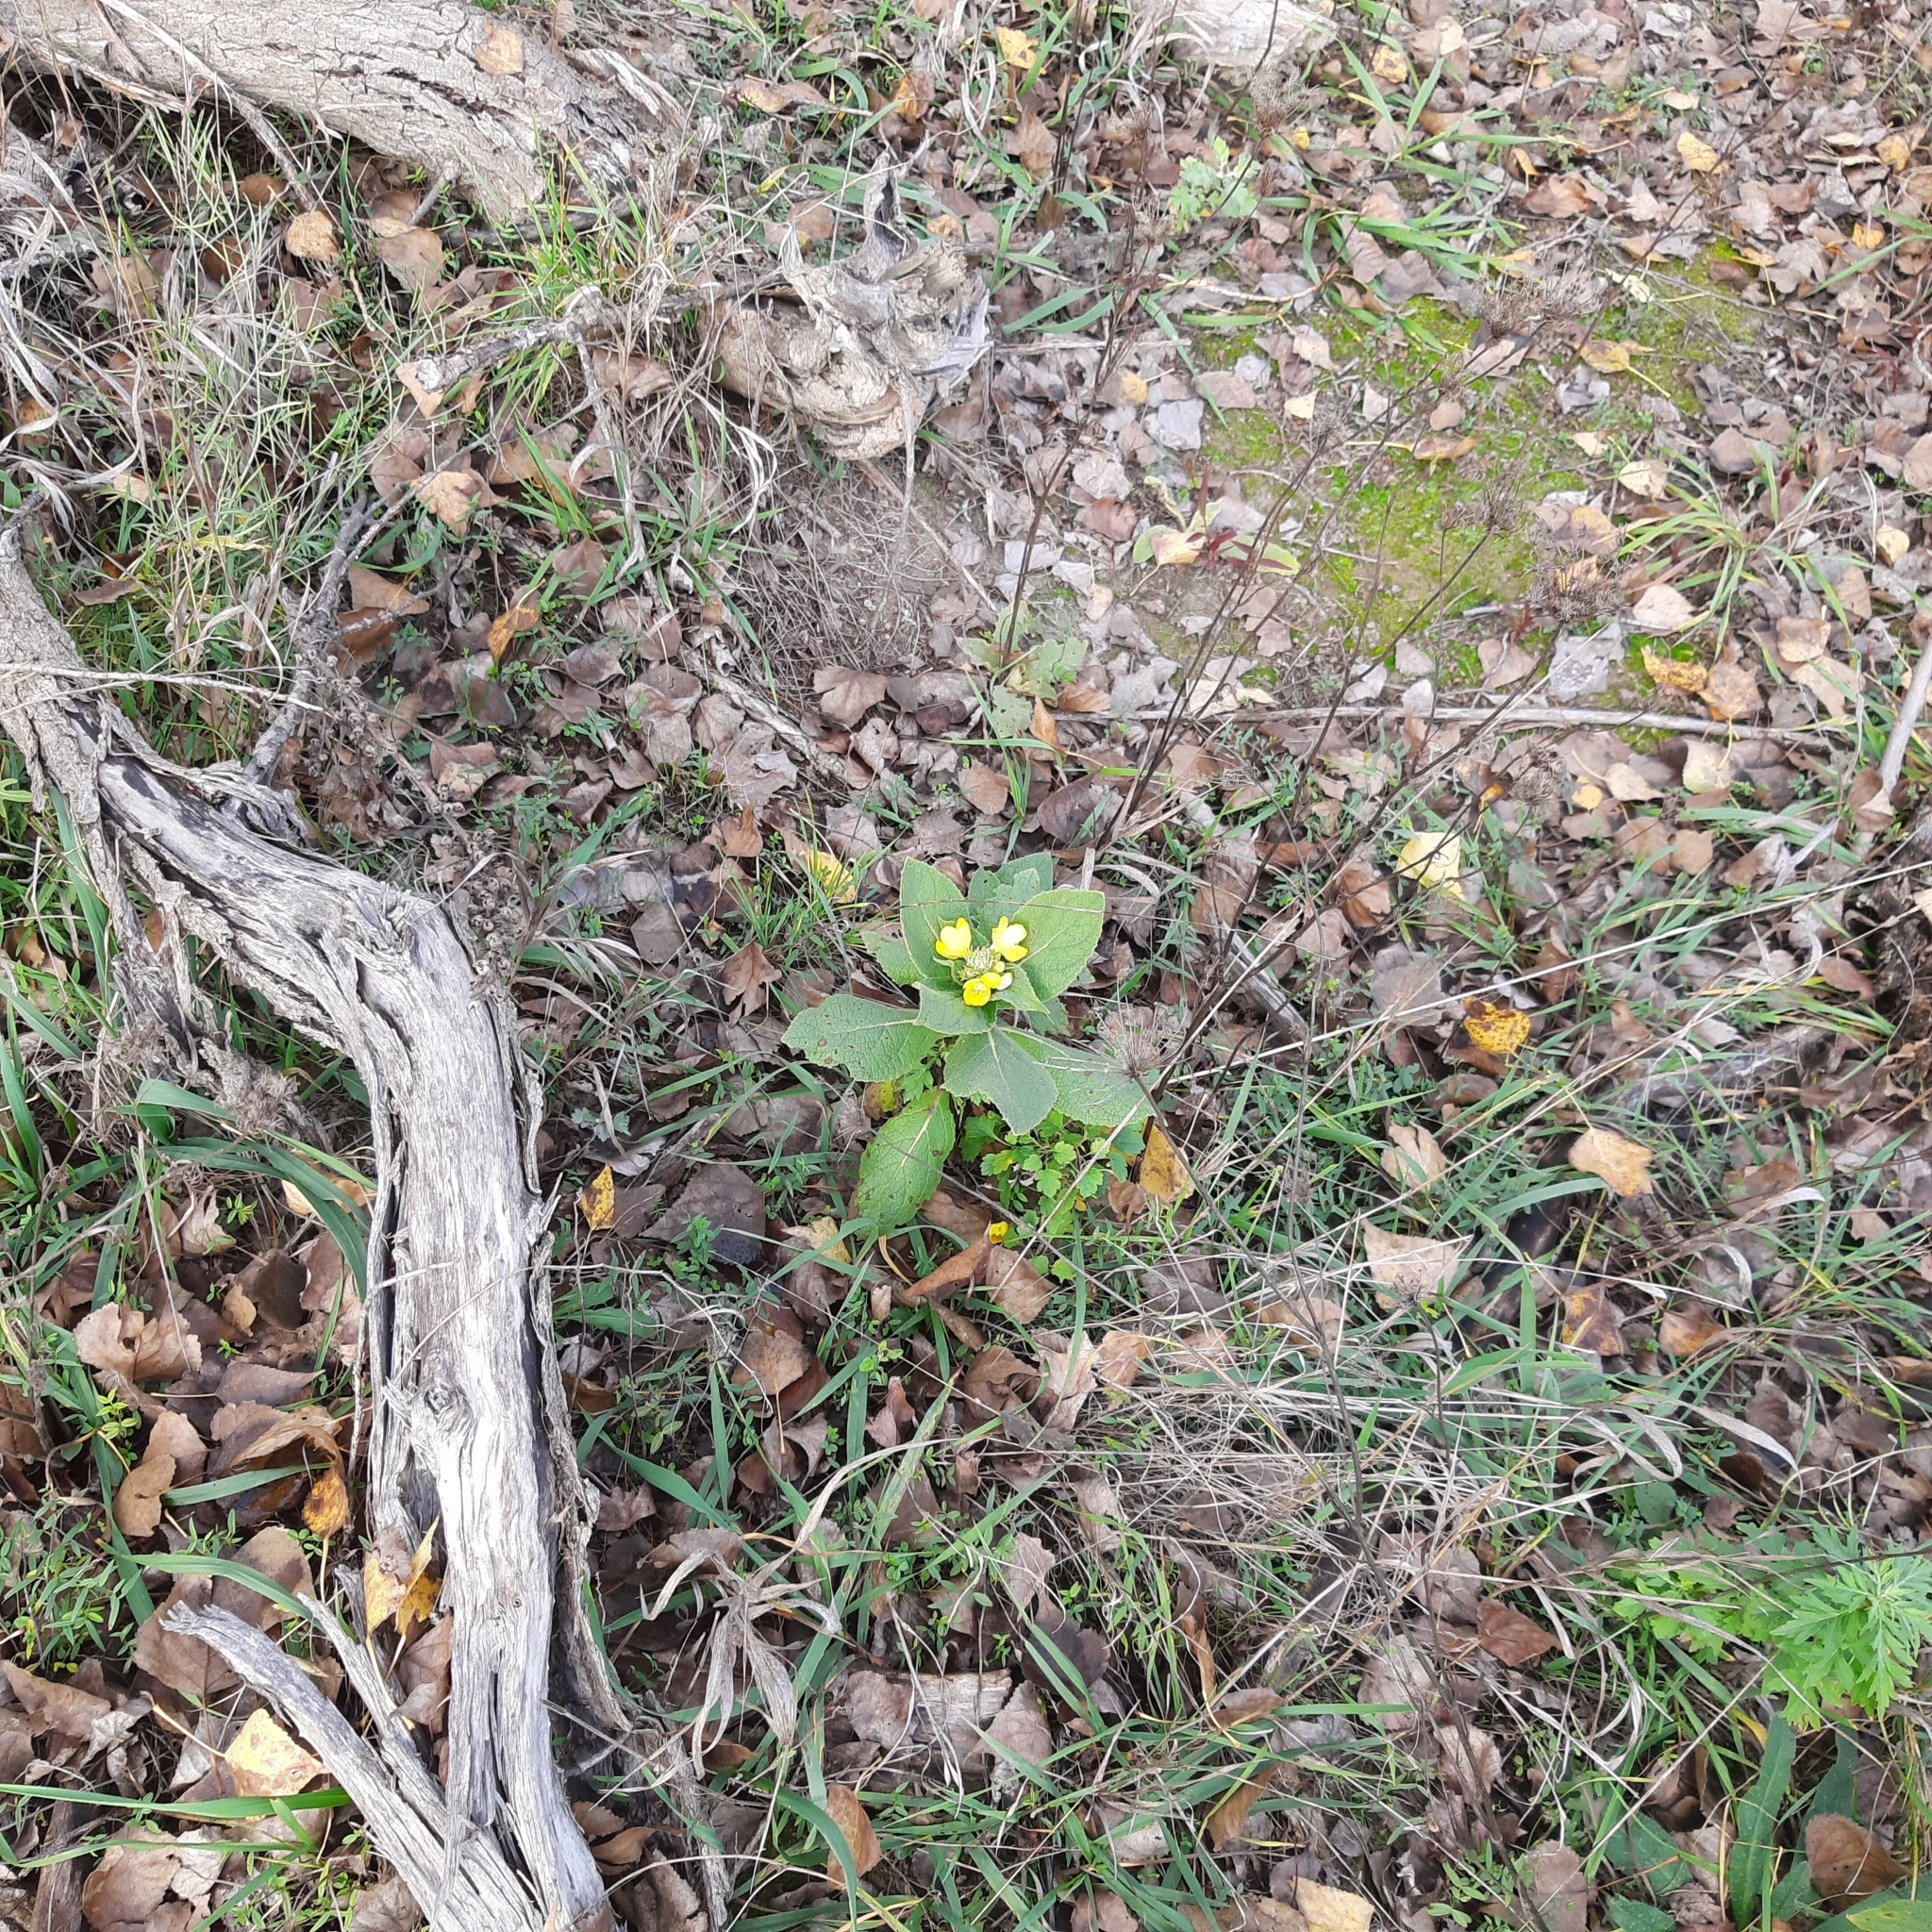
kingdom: Plantae
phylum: Tracheophyta
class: Magnoliopsida
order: Lamiales
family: Scrophulariaceae
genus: Verbascum
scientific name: Verbascum phlomoides
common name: Orange mullein
